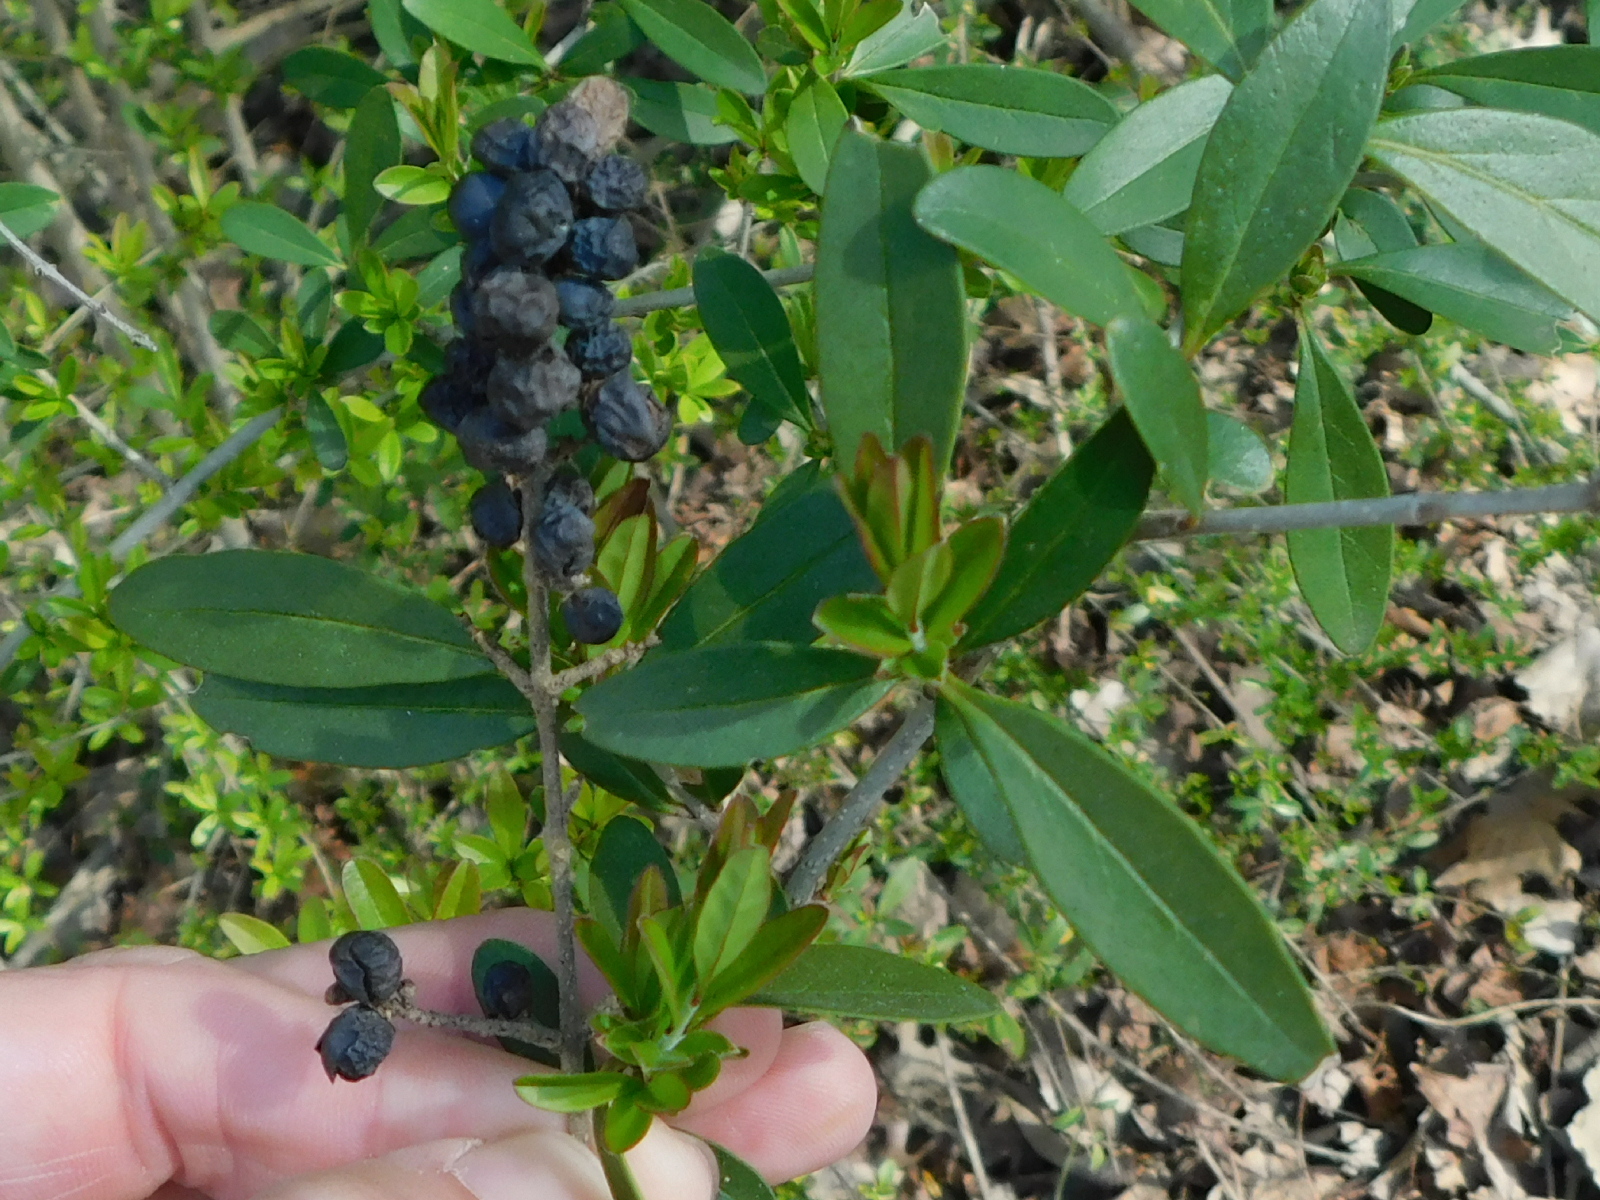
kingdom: Plantae
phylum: Tracheophyta
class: Magnoliopsida
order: Lamiales
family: Oleaceae
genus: Ligustrum
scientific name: Ligustrum quihoui
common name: Waxyleaf privet
